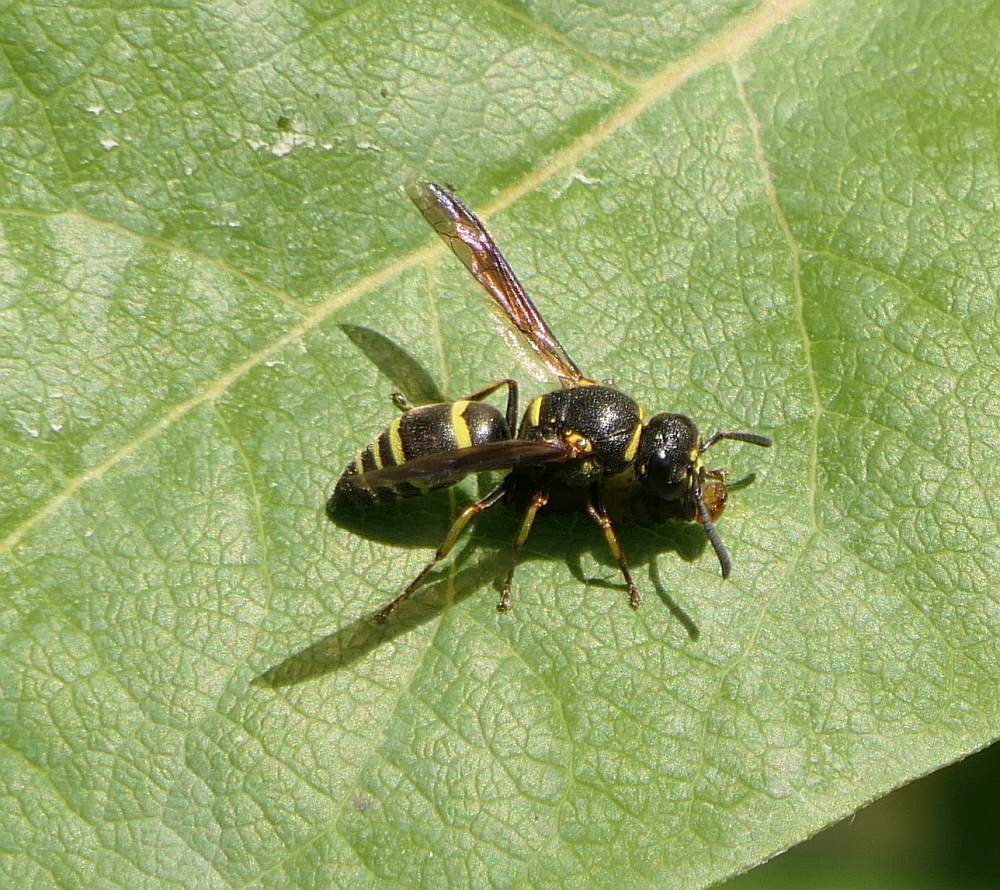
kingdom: Animalia
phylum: Arthropoda
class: Insecta
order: Hymenoptera
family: Eumenidae
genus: Euodynerus
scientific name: Euodynerus foraminatus
